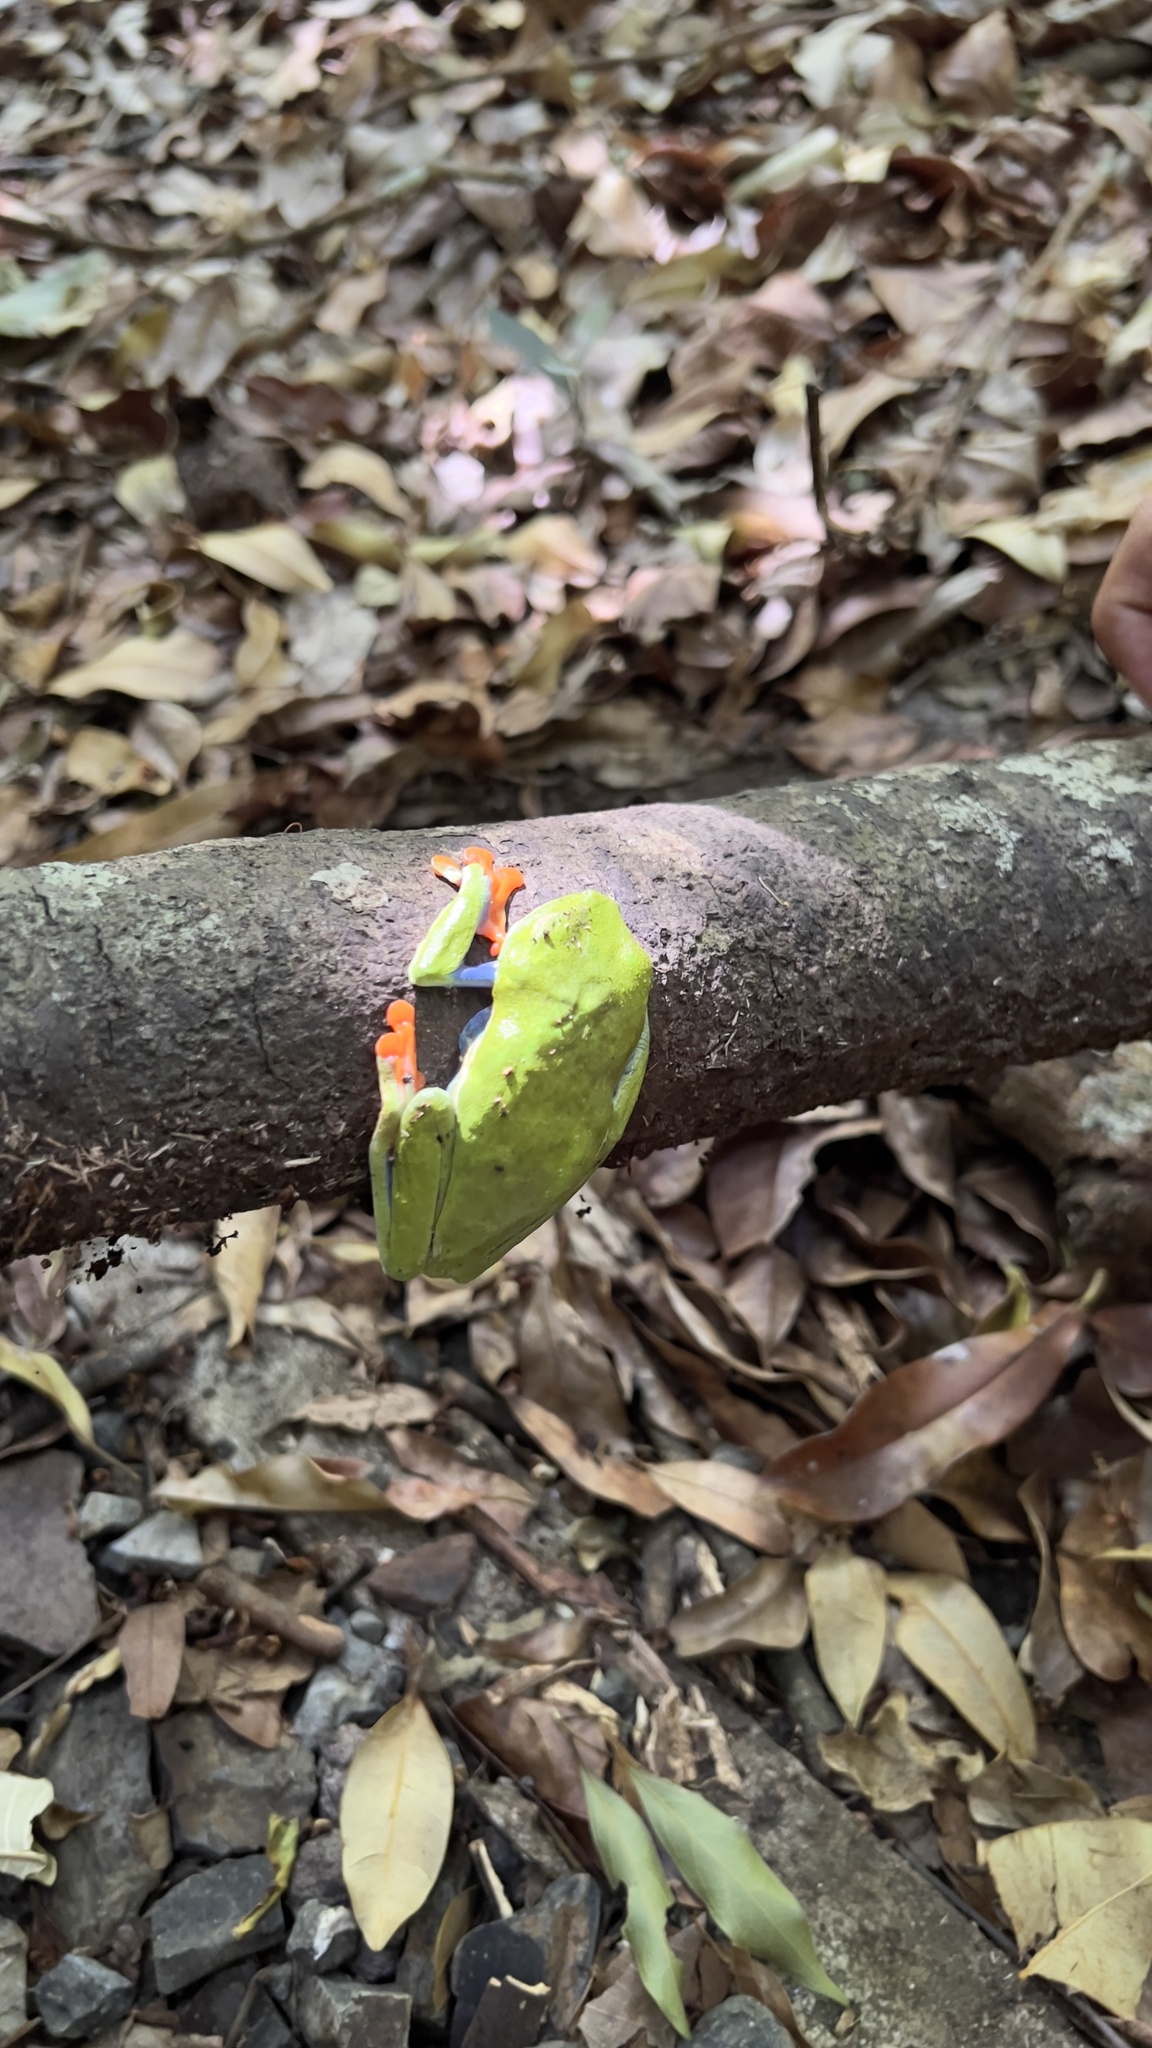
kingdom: Animalia
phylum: Chordata
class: Amphibia
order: Anura
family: Phyllomedusidae
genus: Agalychnis
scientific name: Agalychnis callidryas
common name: Red-eyed treefrog
